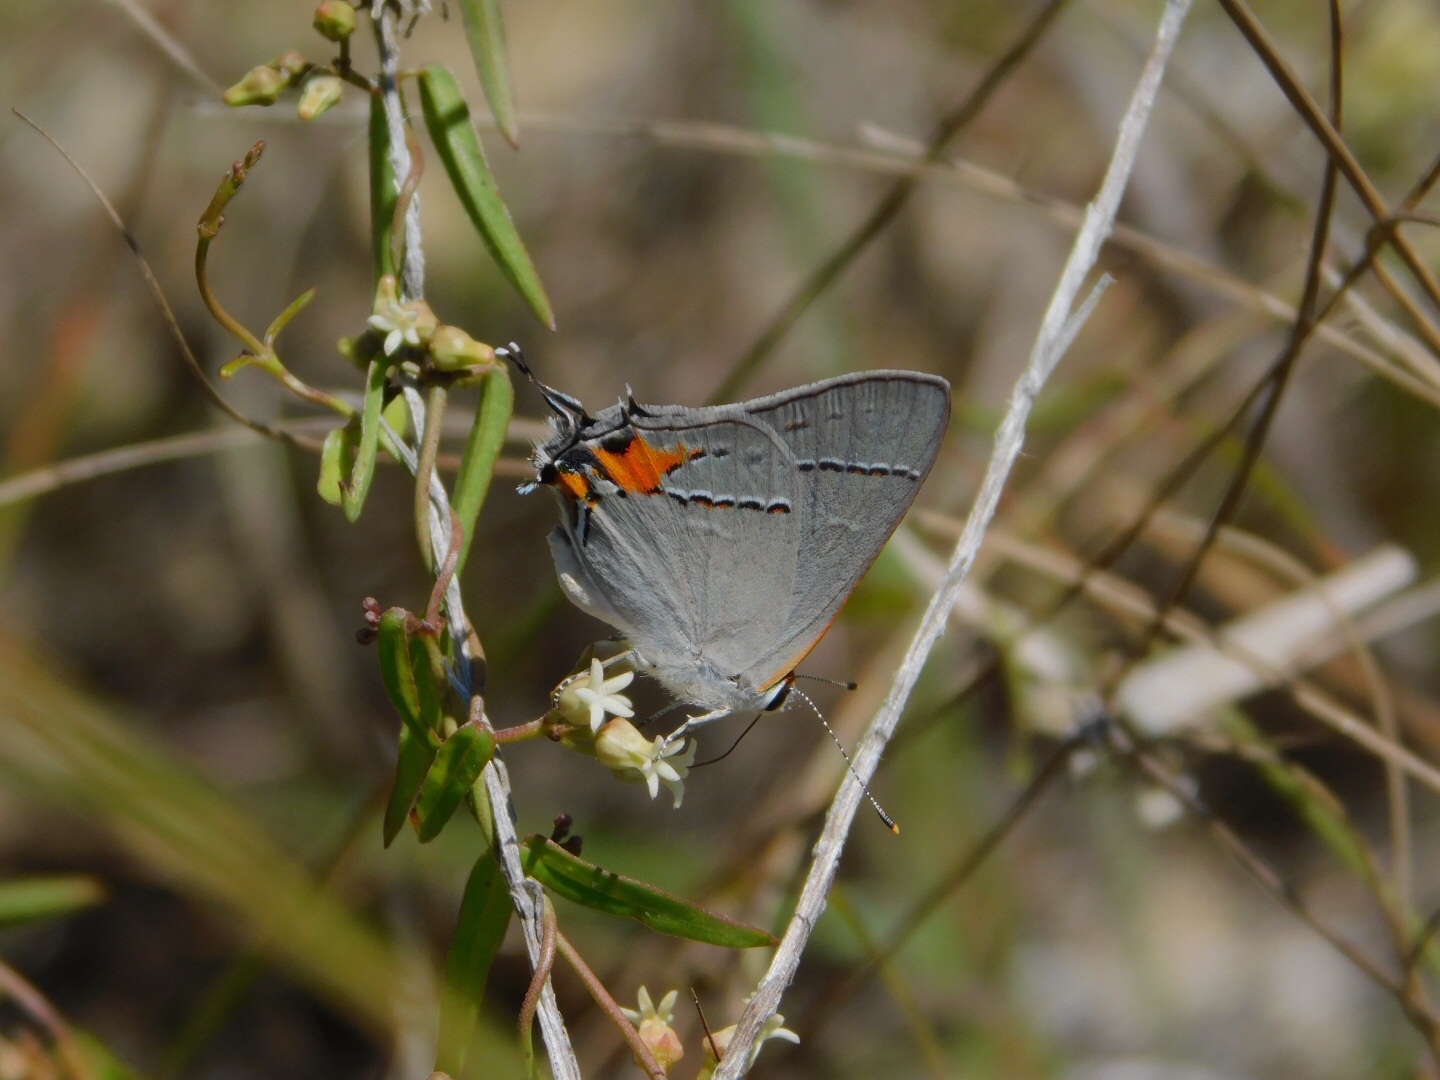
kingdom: Plantae
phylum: Tracheophyta
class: Magnoliopsida
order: Gentianales
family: Apocynaceae
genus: Metastelma
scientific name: Metastelma blodgettii
